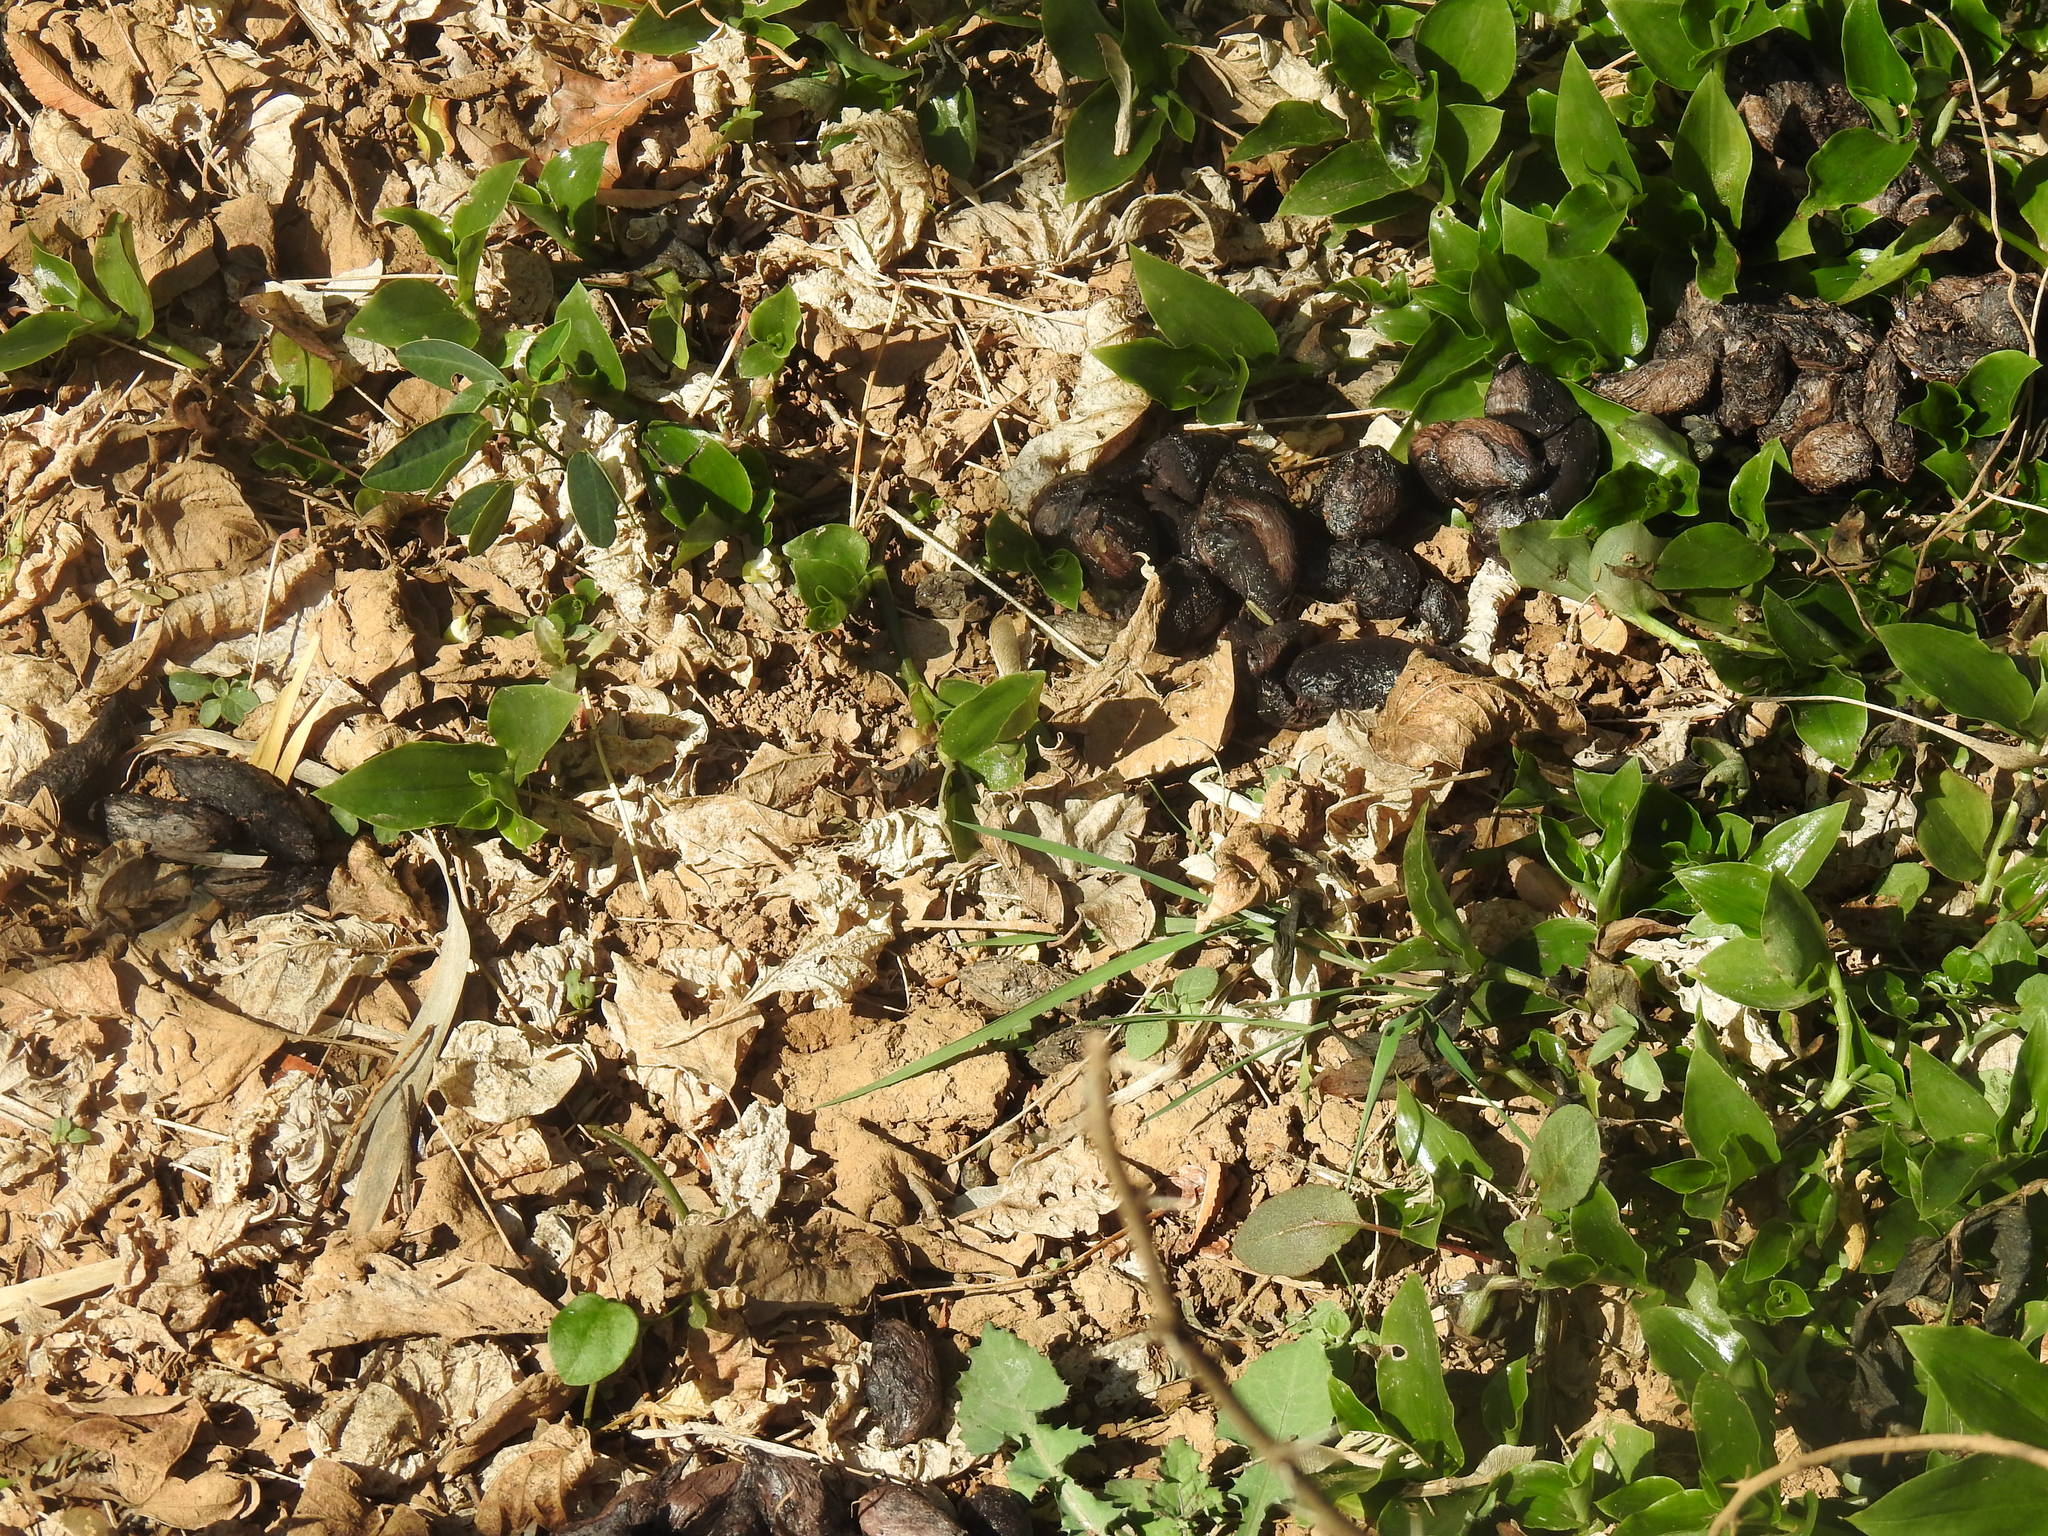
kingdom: Animalia
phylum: Chordata
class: Mammalia
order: Rodentia
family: Hystricidae
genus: Hystrix
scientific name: Hystrix africaeaustralis
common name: Cape porcupine
